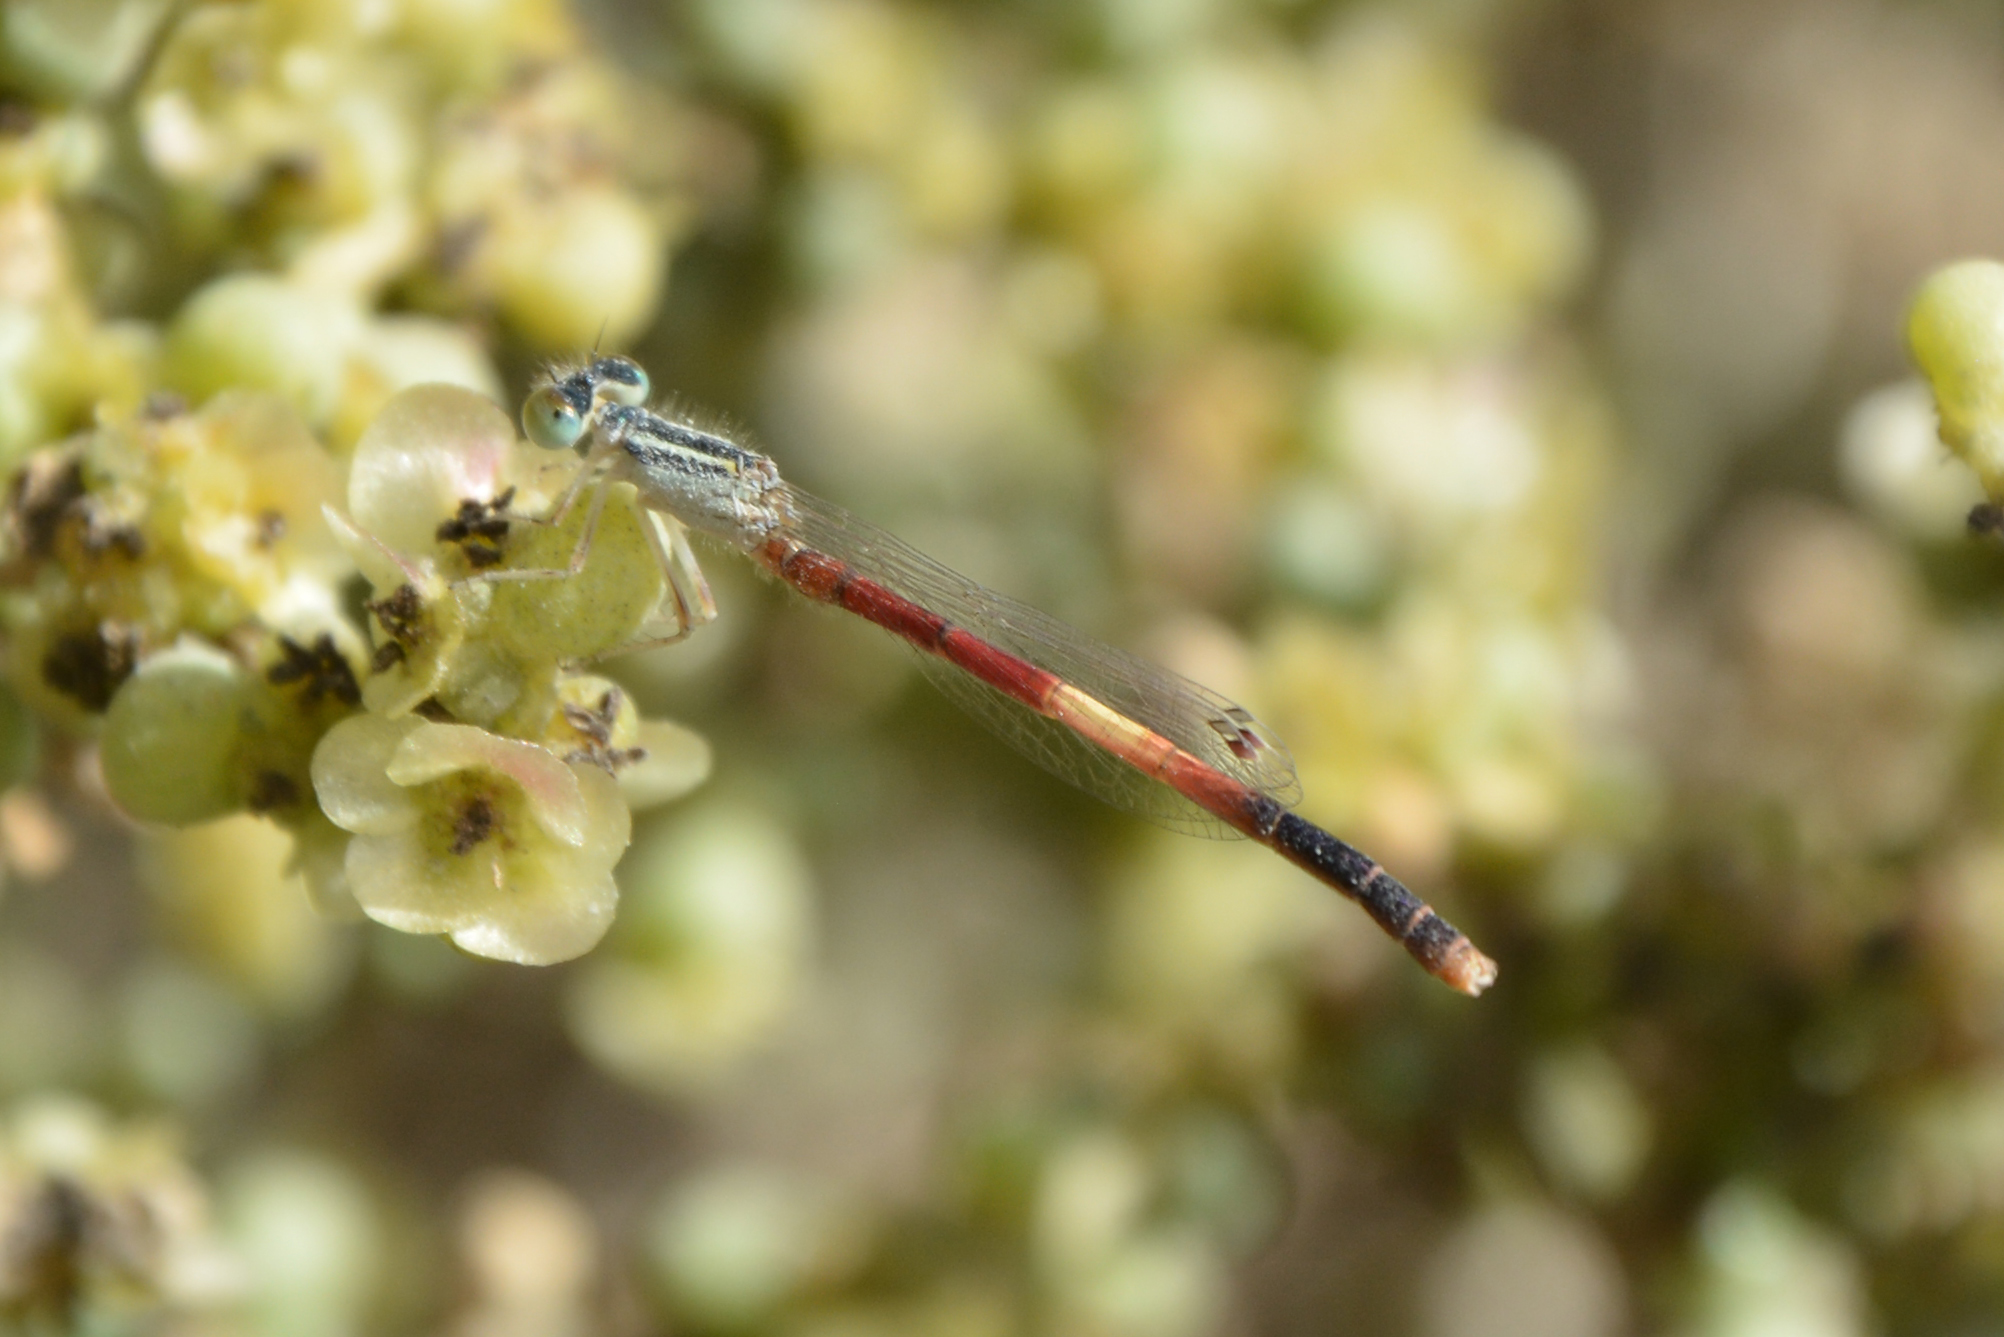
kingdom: Animalia
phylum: Arthropoda
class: Insecta
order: Odonata
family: Coenagrionidae
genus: Ischnura
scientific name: Ischnura nursei
